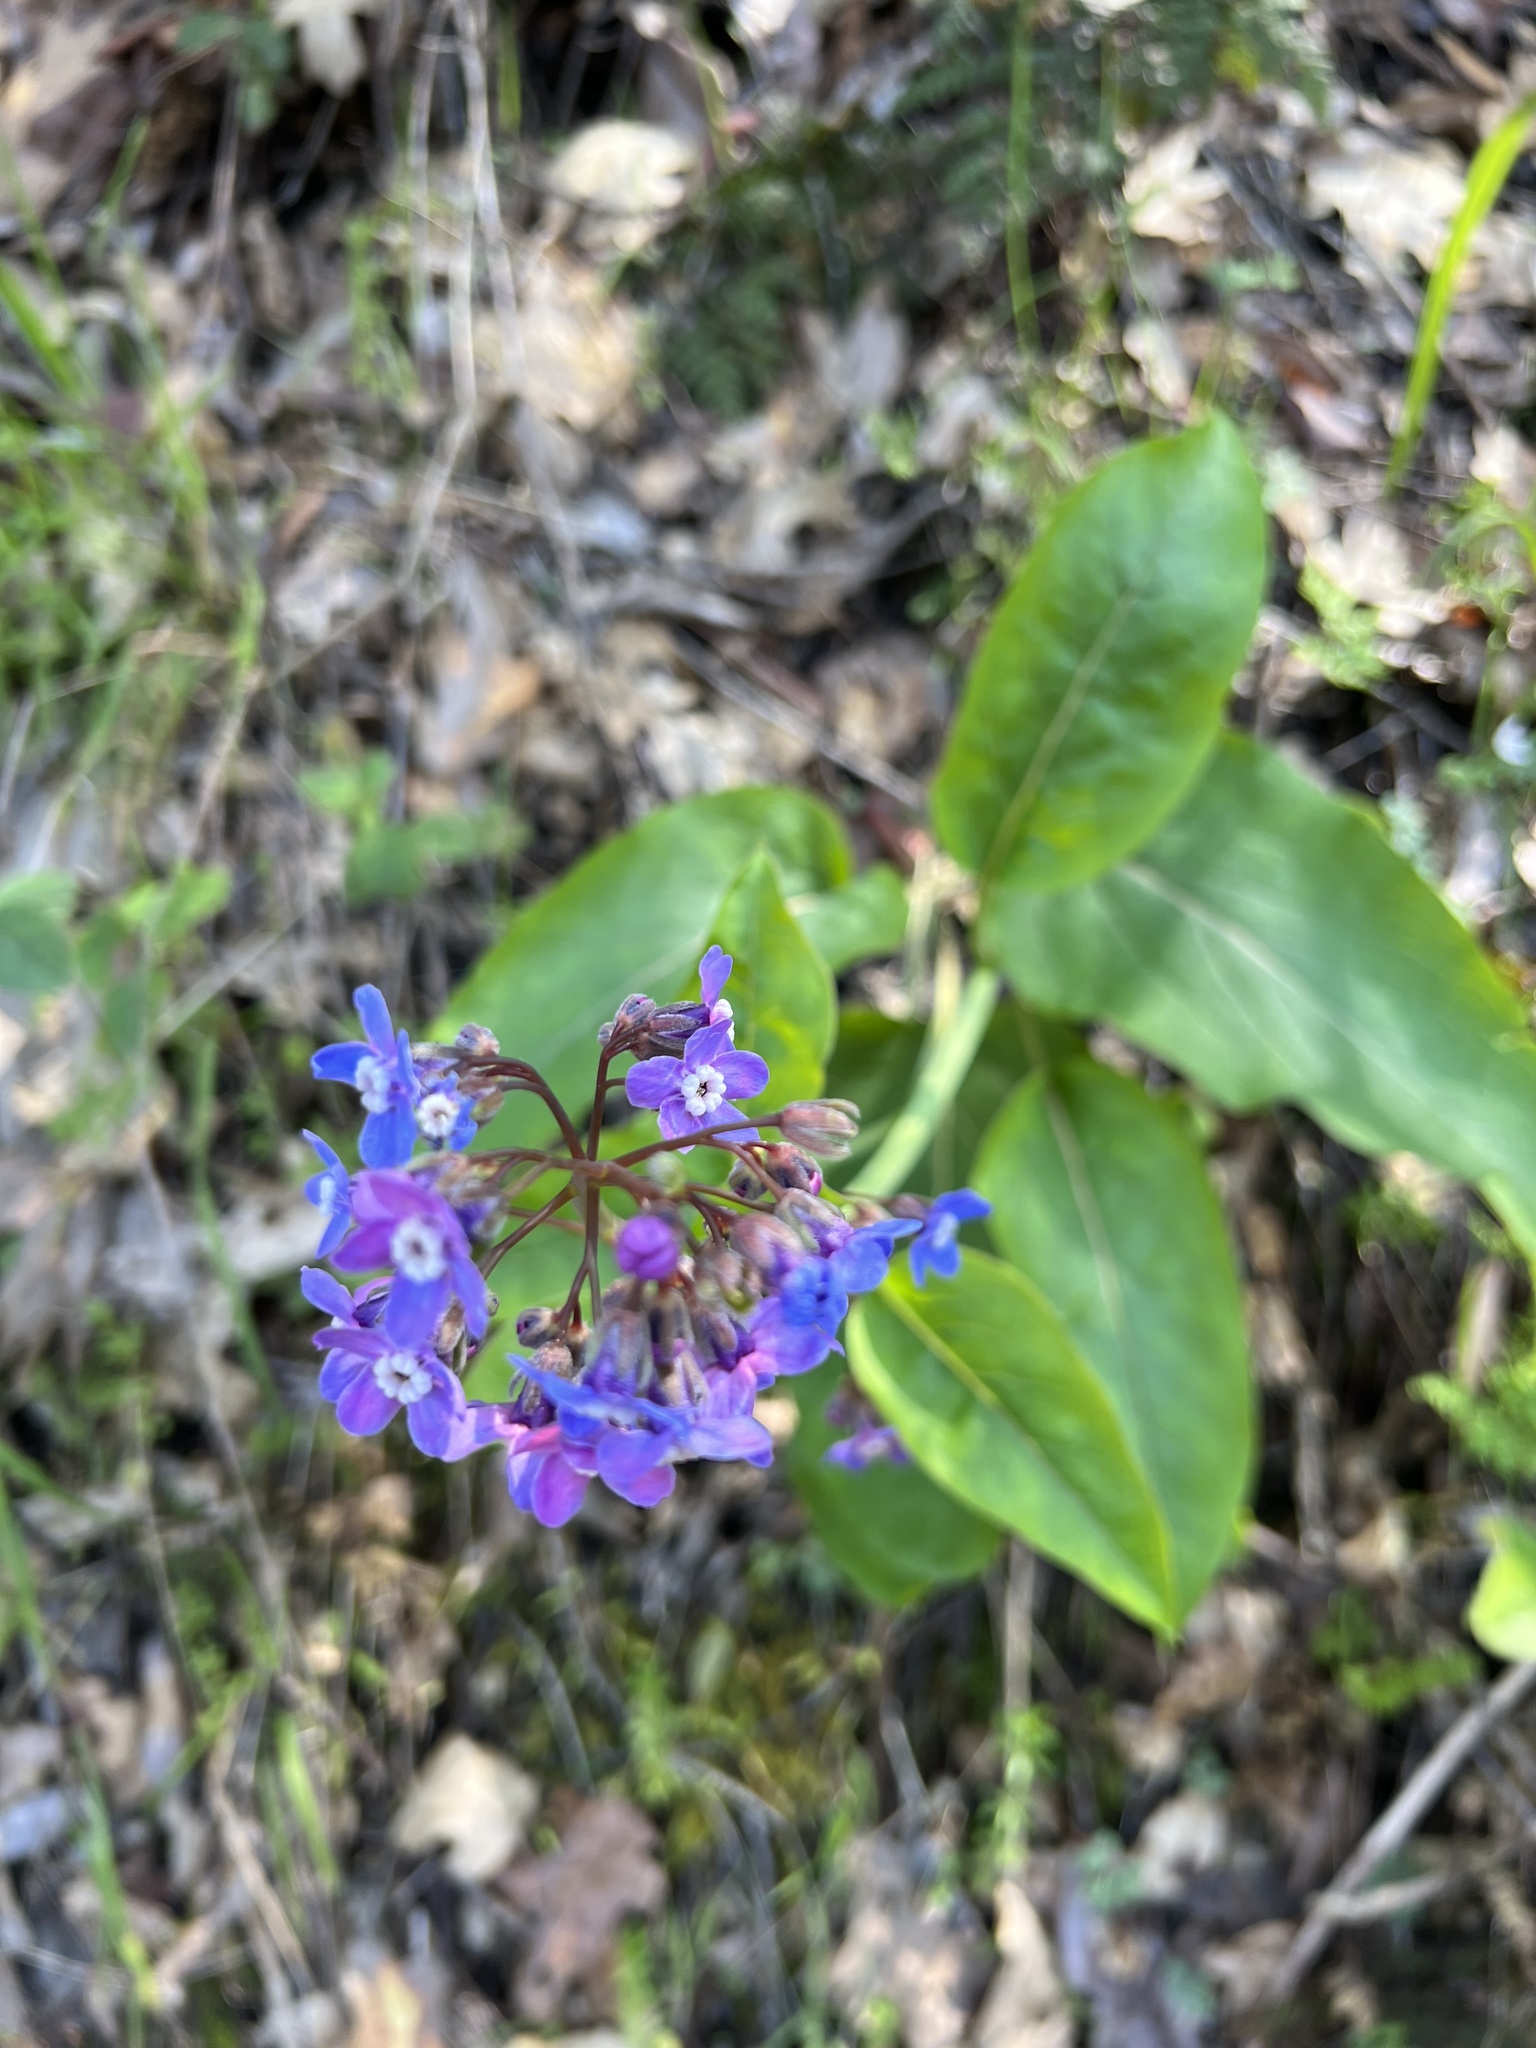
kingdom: Plantae
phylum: Tracheophyta
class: Magnoliopsida
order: Boraginales
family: Boraginaceae
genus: Adelinia
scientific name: Adelinia grande
